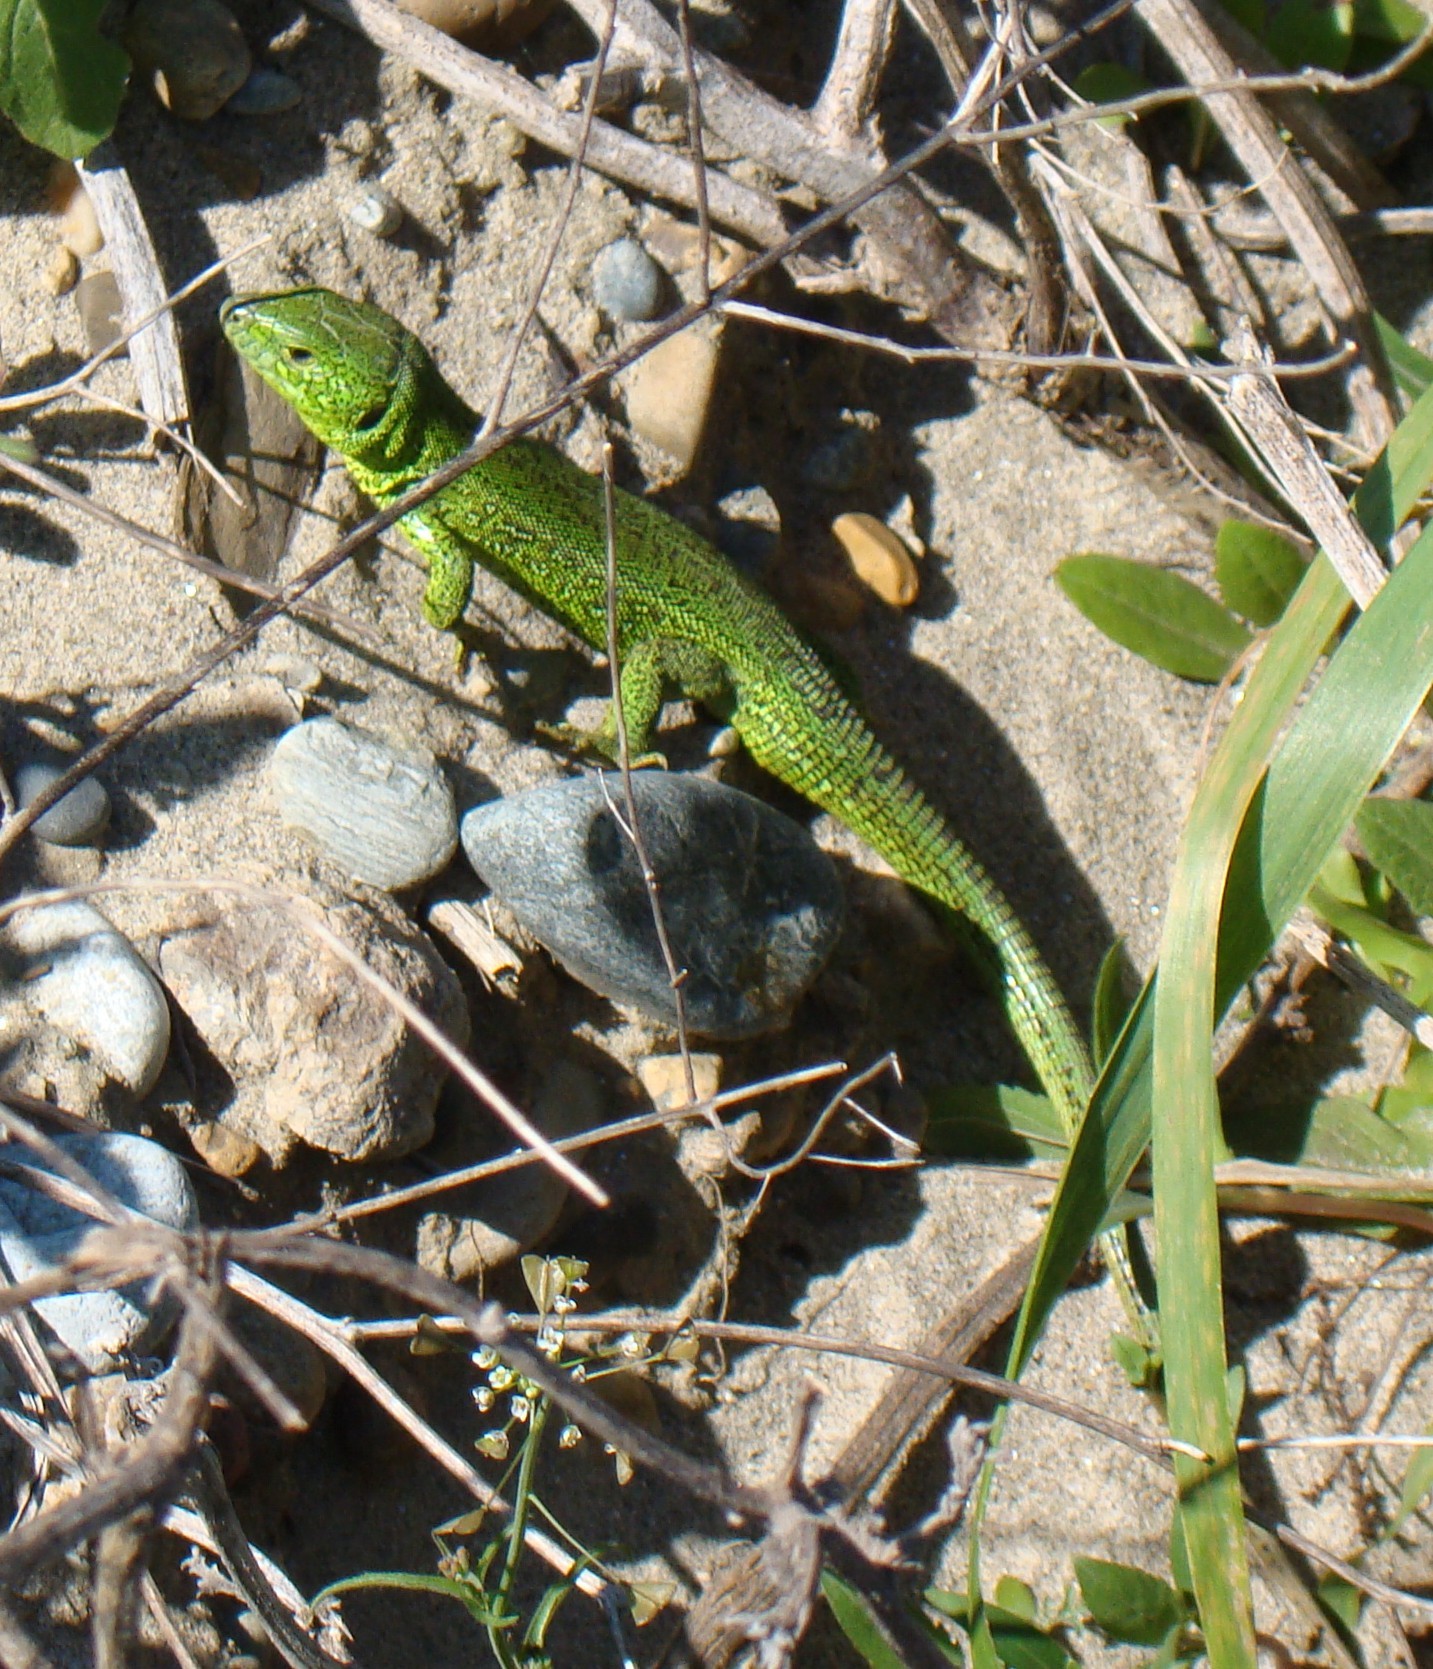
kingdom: Animalia
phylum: Chordata
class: Squamata
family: Lacertidae
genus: Lacerta
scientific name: Lacerta agilis
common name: Sand lizard
